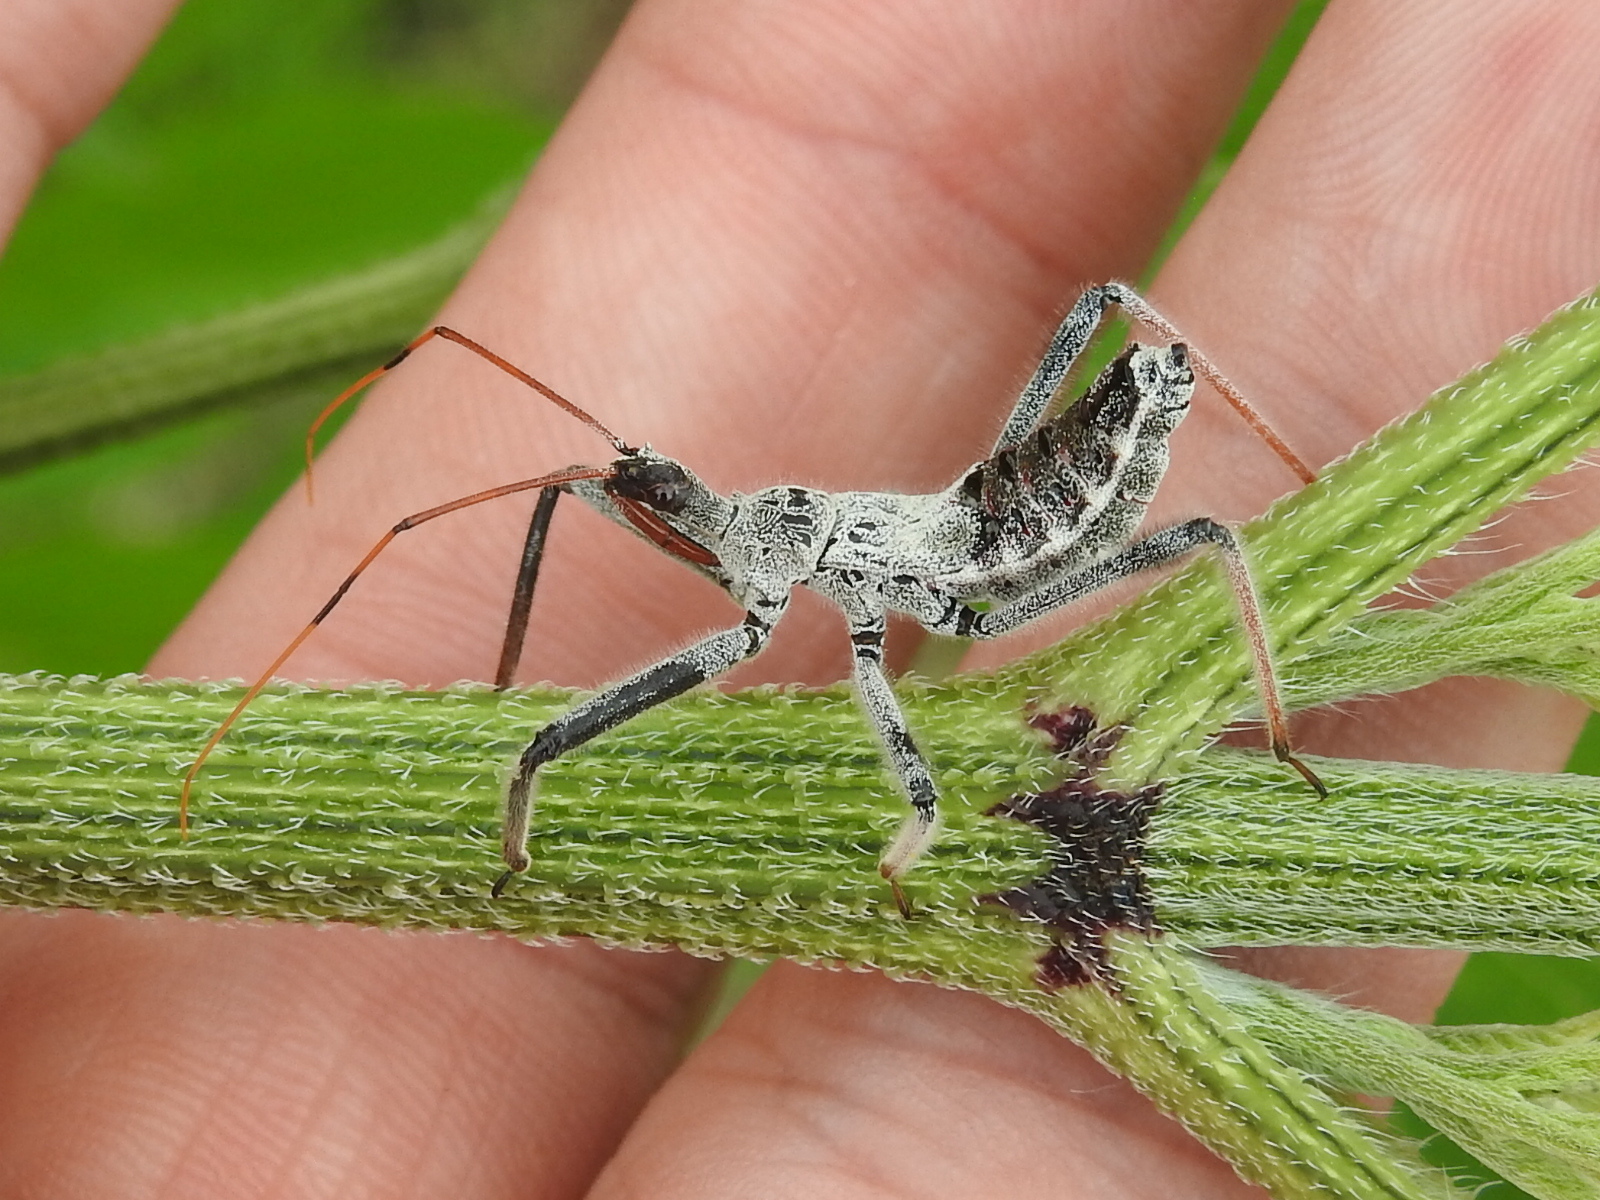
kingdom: Animalia
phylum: Arthropoda
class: Insecta
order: Hemiptera
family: Reduviidae
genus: Arilus
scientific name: Arilus cristatus
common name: North american wheel bug
